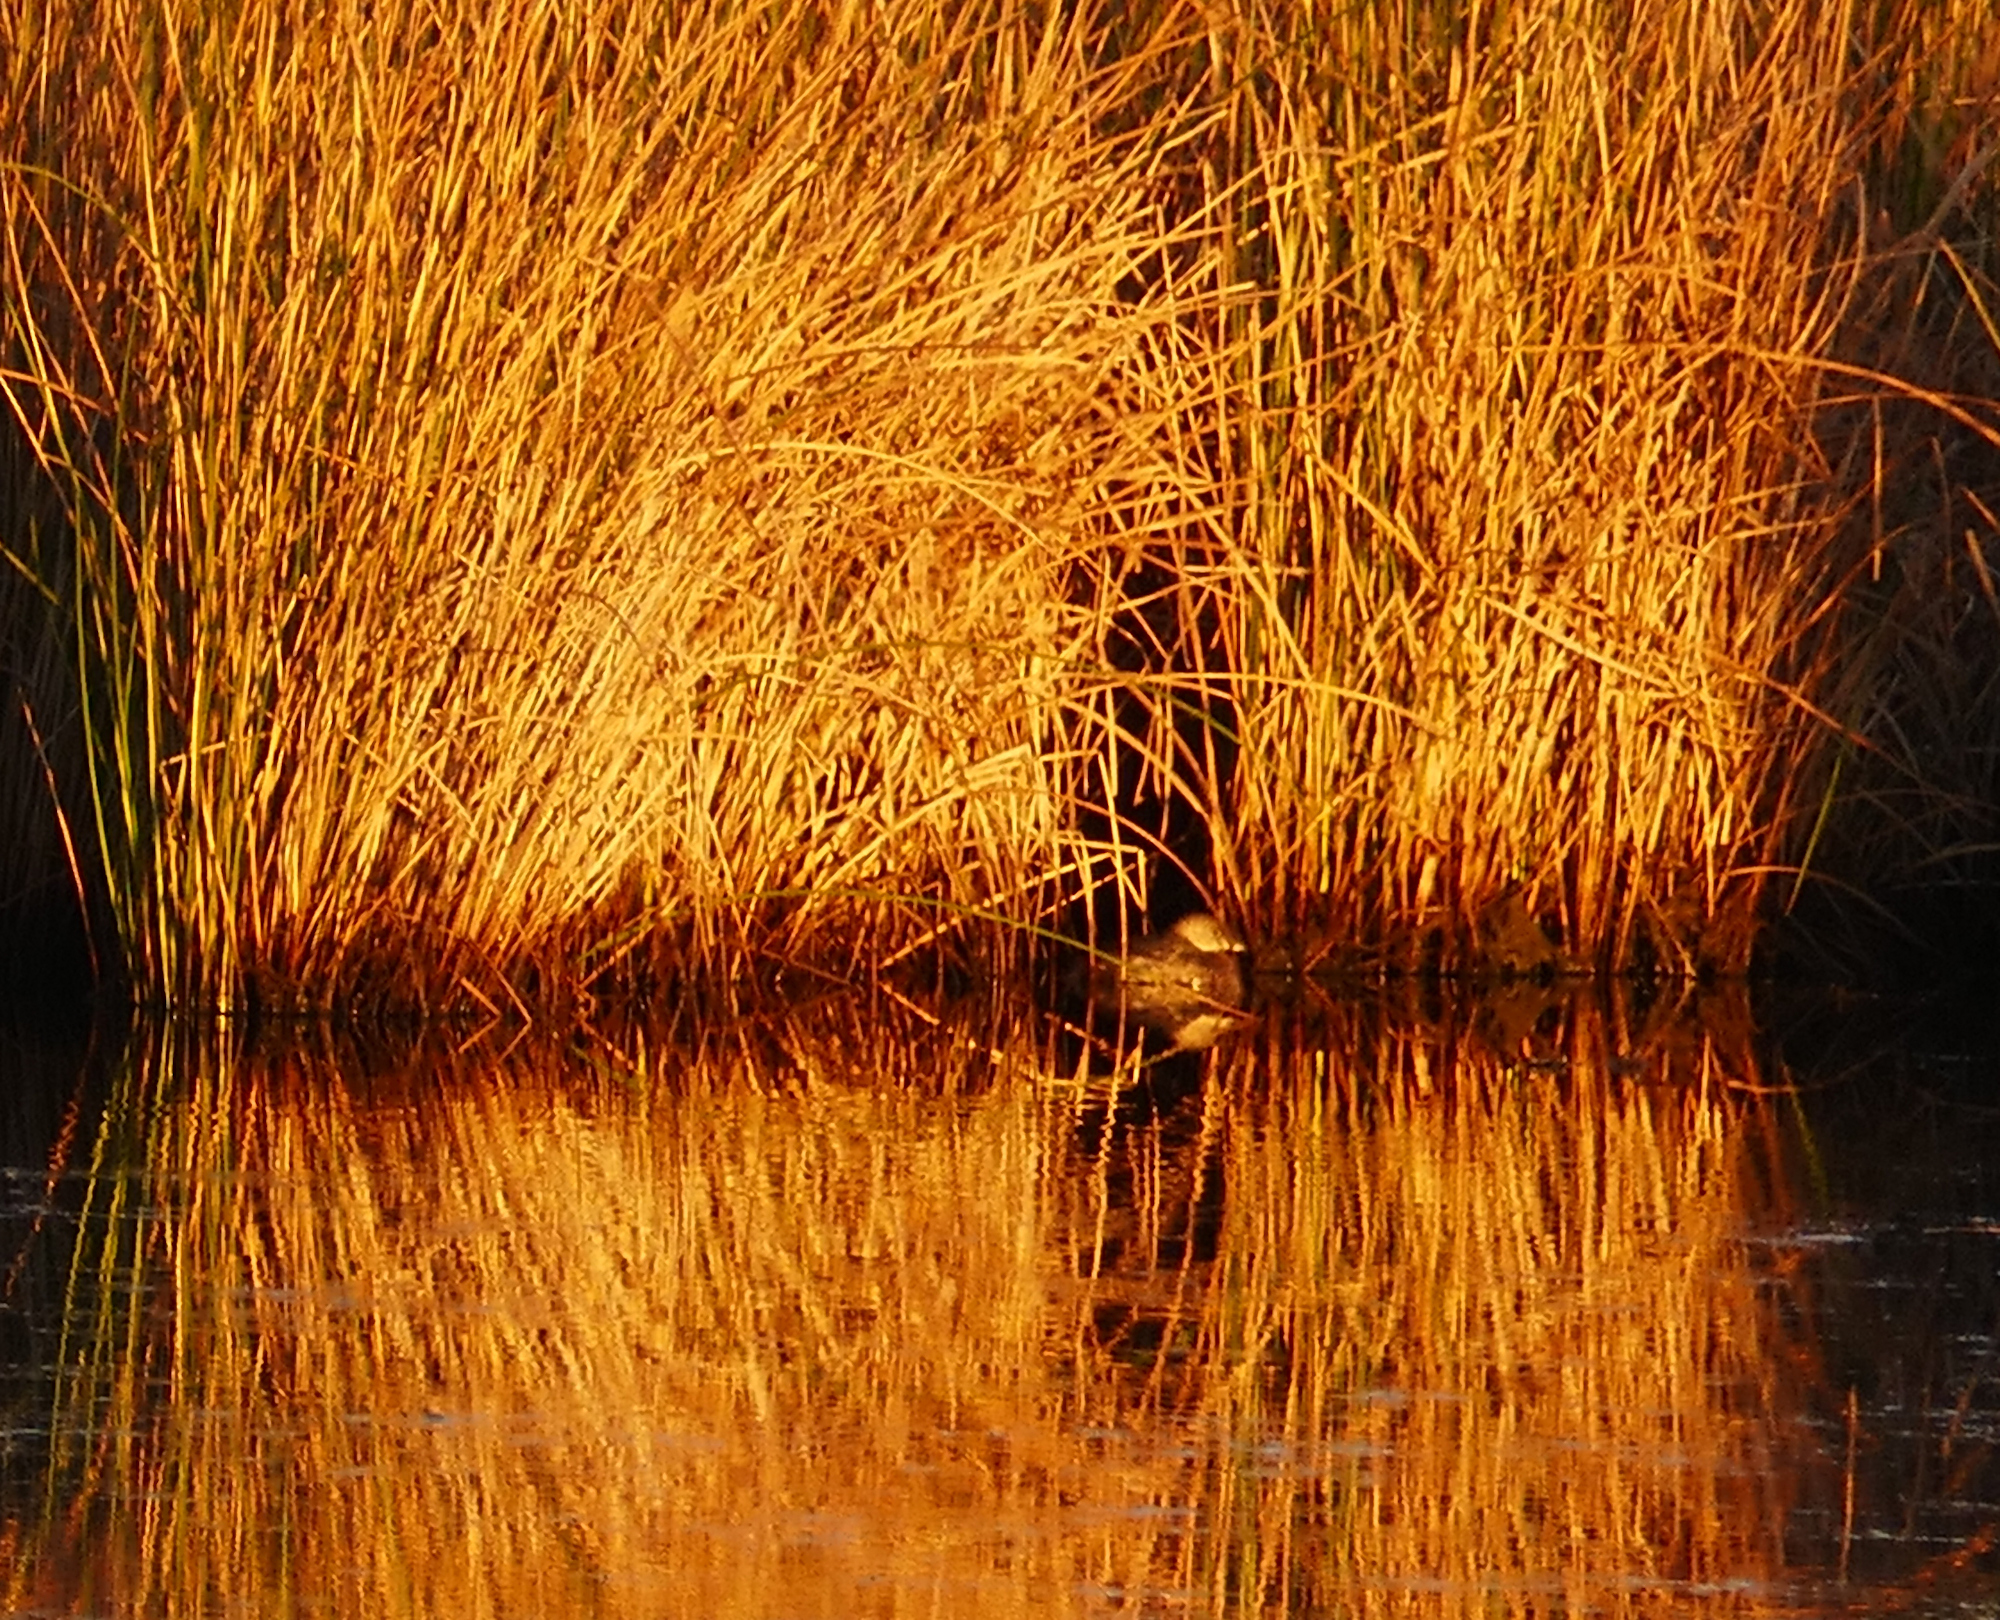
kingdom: Animalia
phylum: Chordata
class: Aves
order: Podicipediformes
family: Podicipedidae
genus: Podilymbus
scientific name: Podilymbus podiceps
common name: Pied-billed grebe
